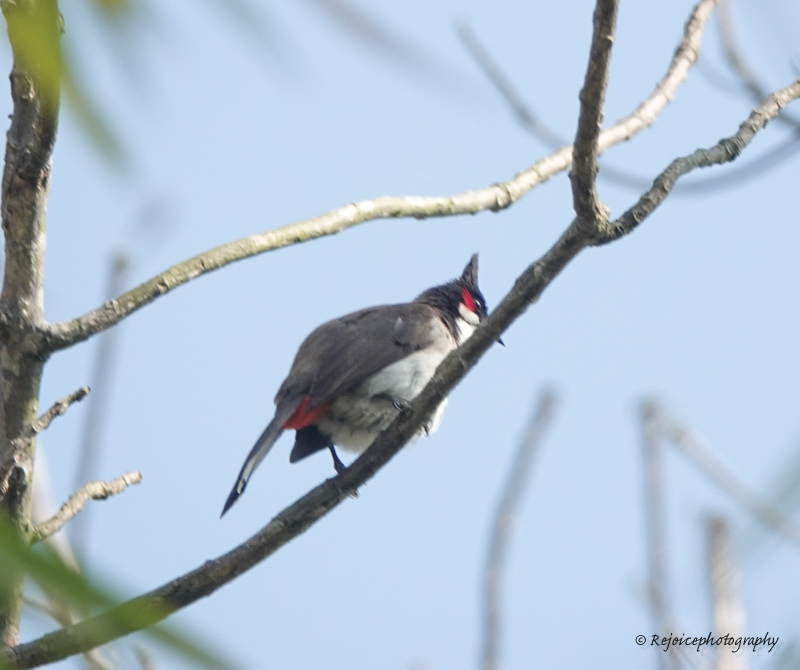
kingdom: Animalia
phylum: Chordata
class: Aves
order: Passeriformes
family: Pycnonotidae
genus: Pycnonotus
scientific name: Pycnonotus jocosus
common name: Red-whiskered bulbul
